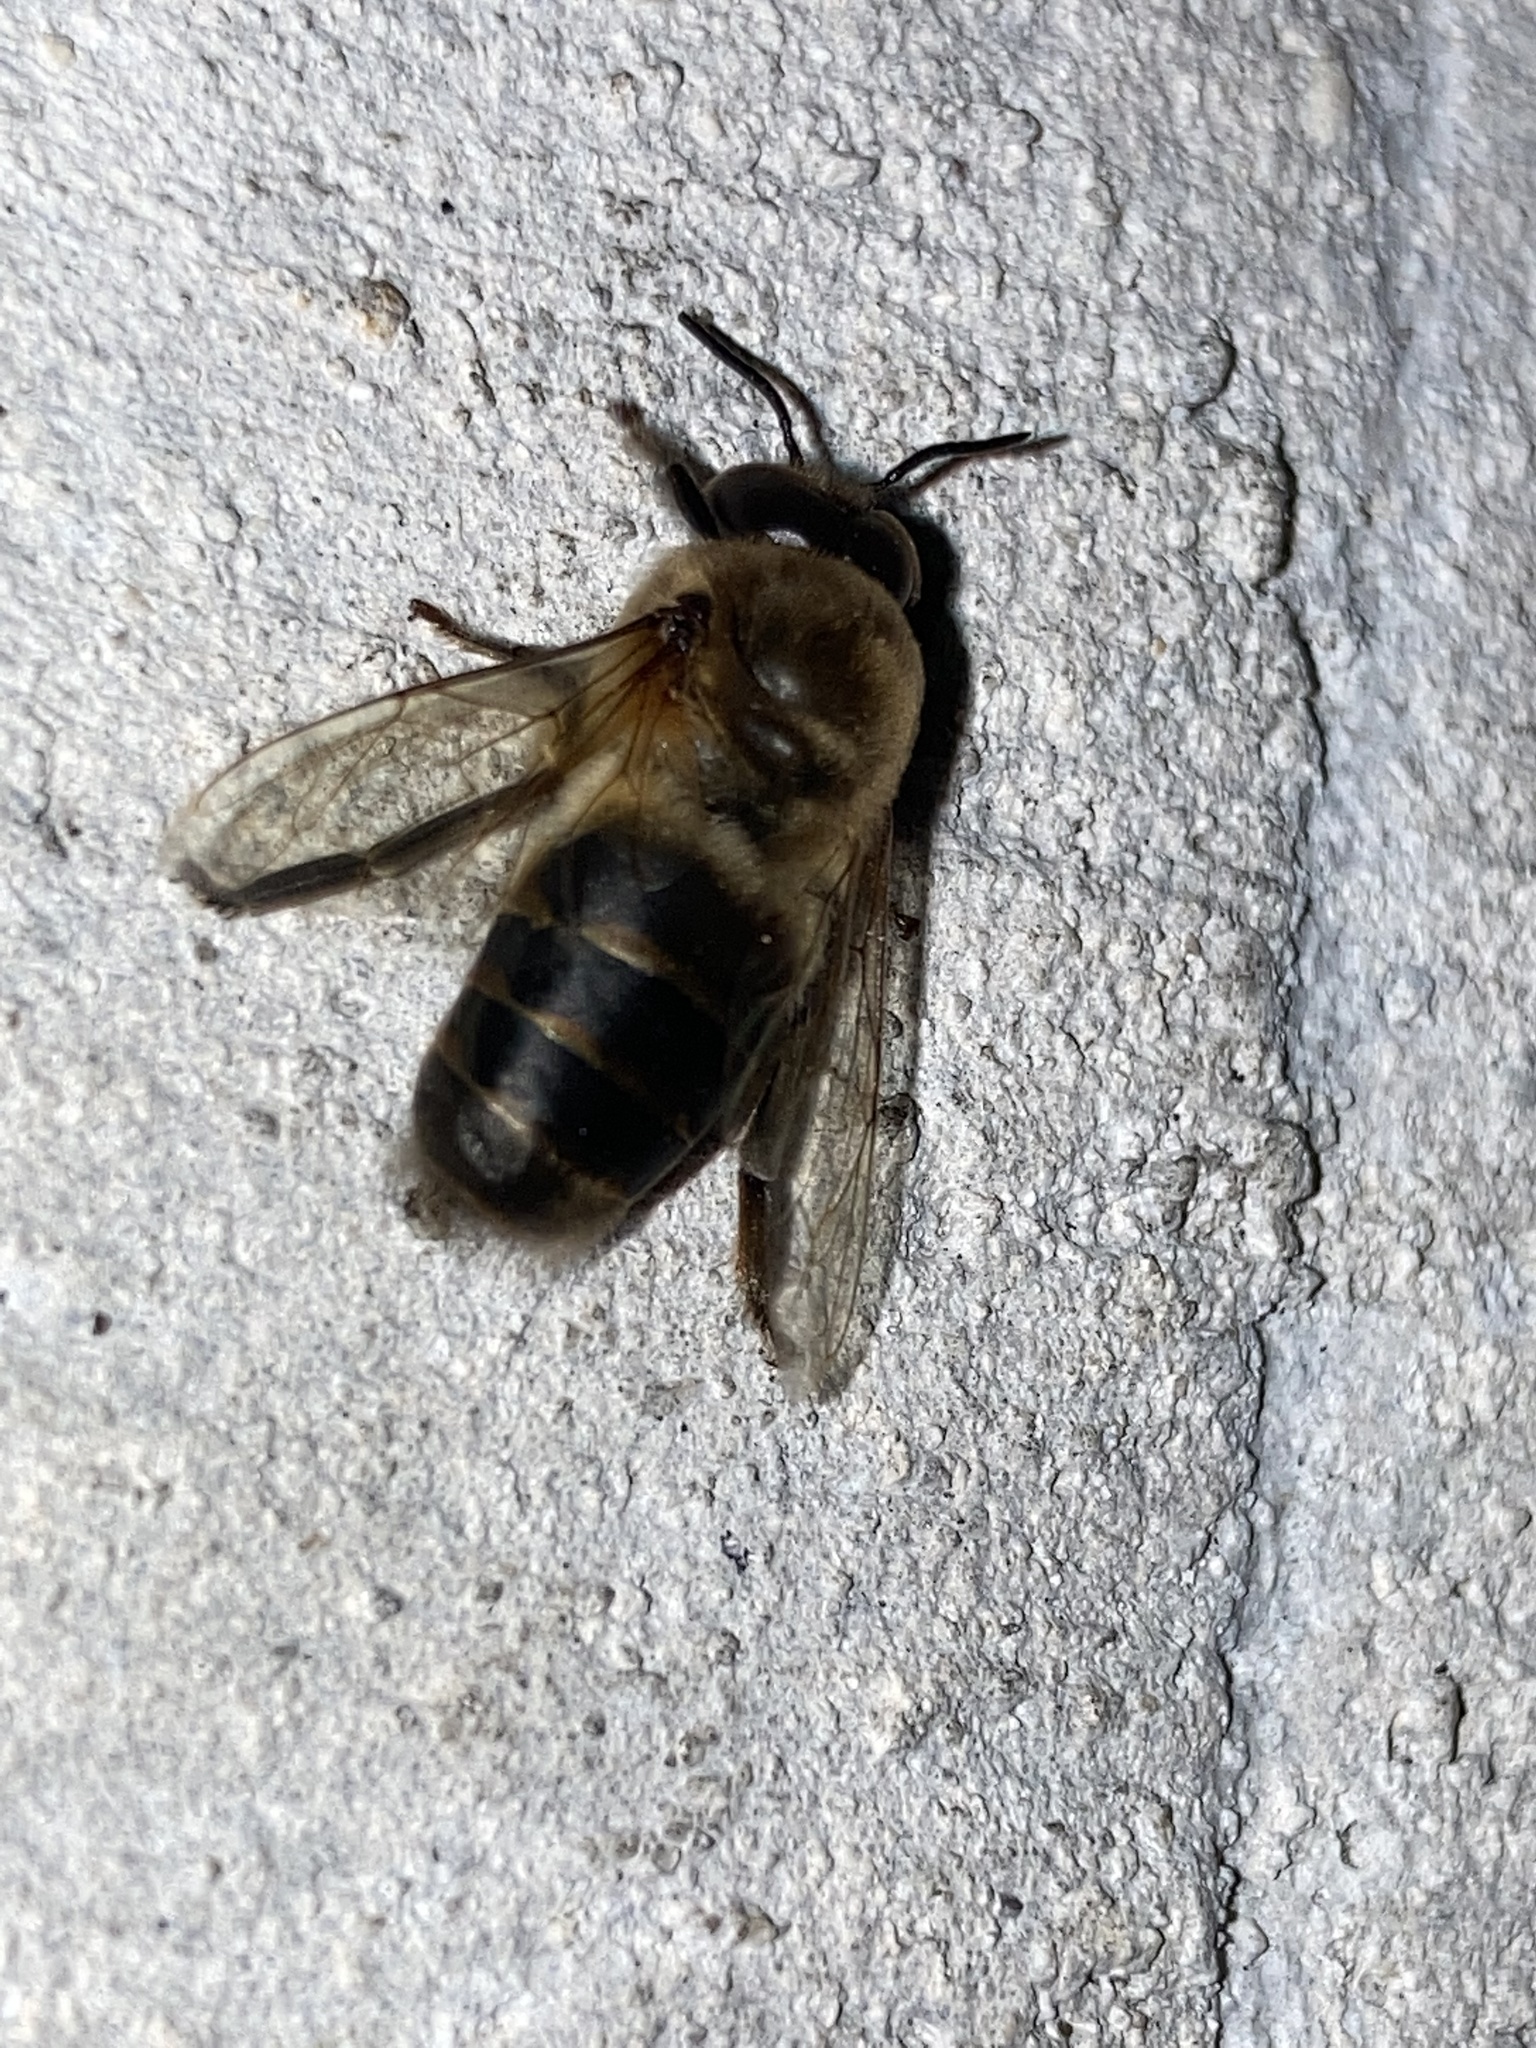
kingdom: Animalia
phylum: Arthropoda
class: Insecta
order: Hymenoptera
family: Apidae
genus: Apis
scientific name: Apis mellifera
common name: Honey bee
